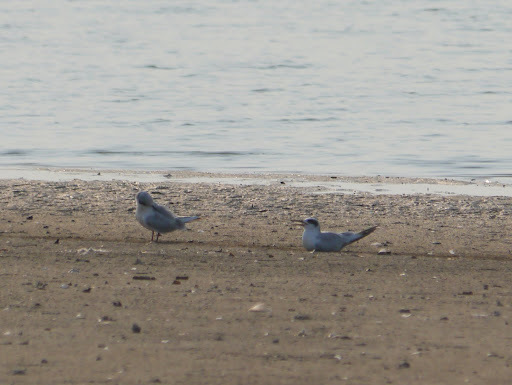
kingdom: Animalia
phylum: Chordata
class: Aves
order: Charadriiformes
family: Laridae
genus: Sterna
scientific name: Sterna forsteri
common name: Forster's tern
